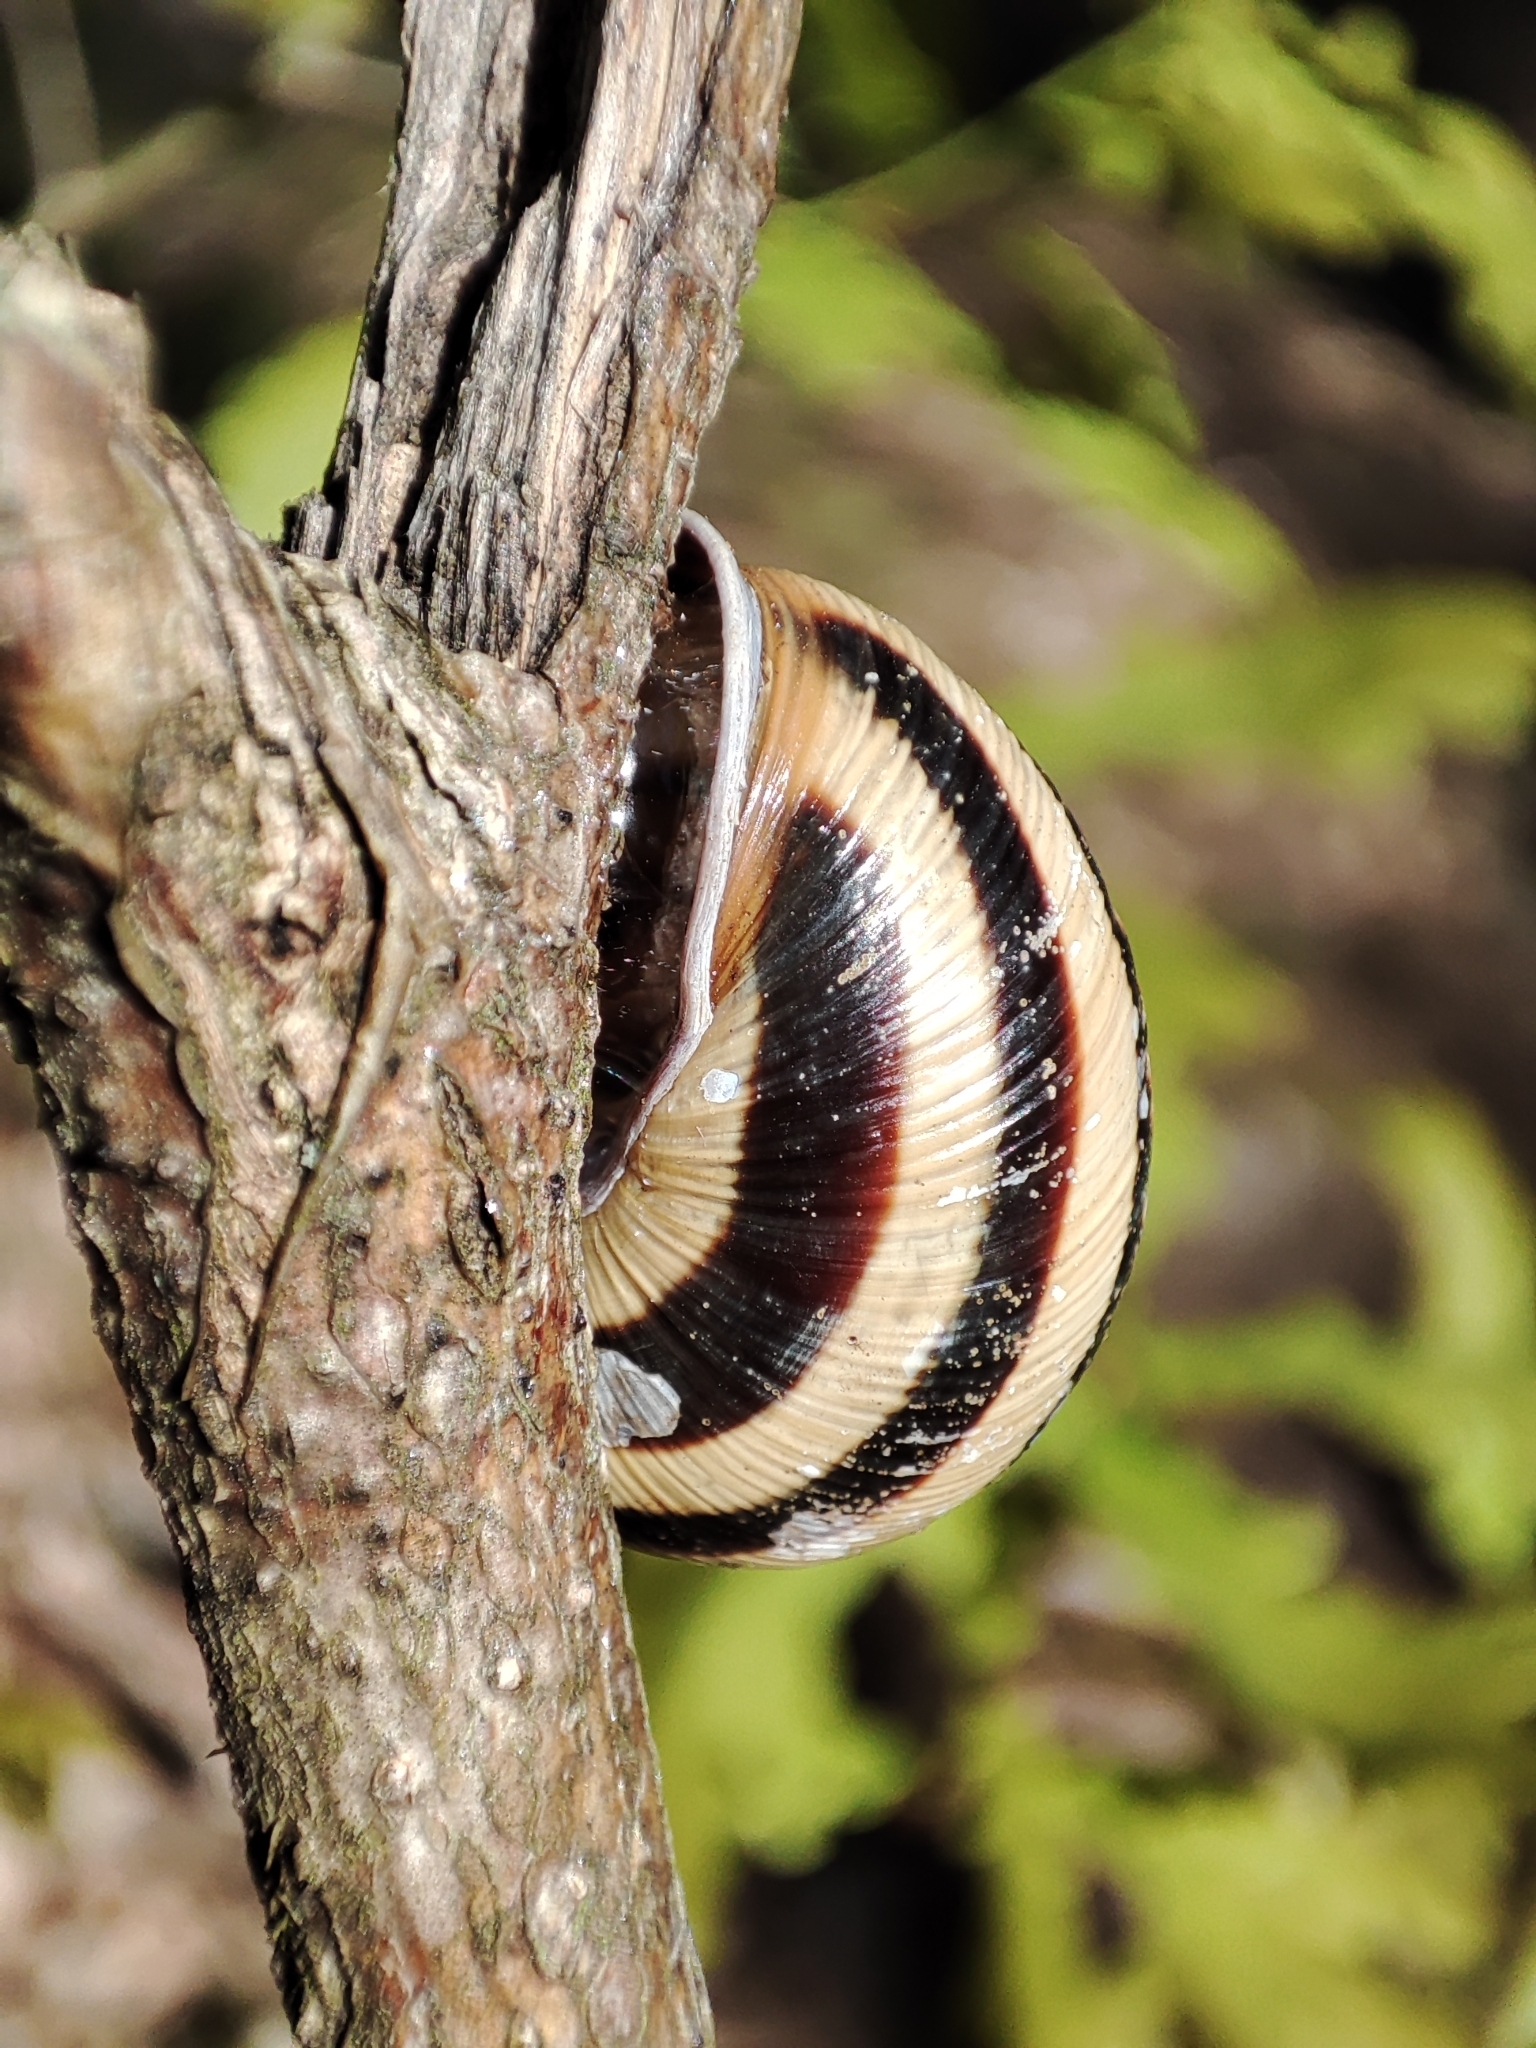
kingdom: Animalia
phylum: Mollusca
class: Gastropoda
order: Stylommatophora
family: Helicidae
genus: Caucasotachea
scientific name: Caucasotachea vindobonensis
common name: European helicid land snail
